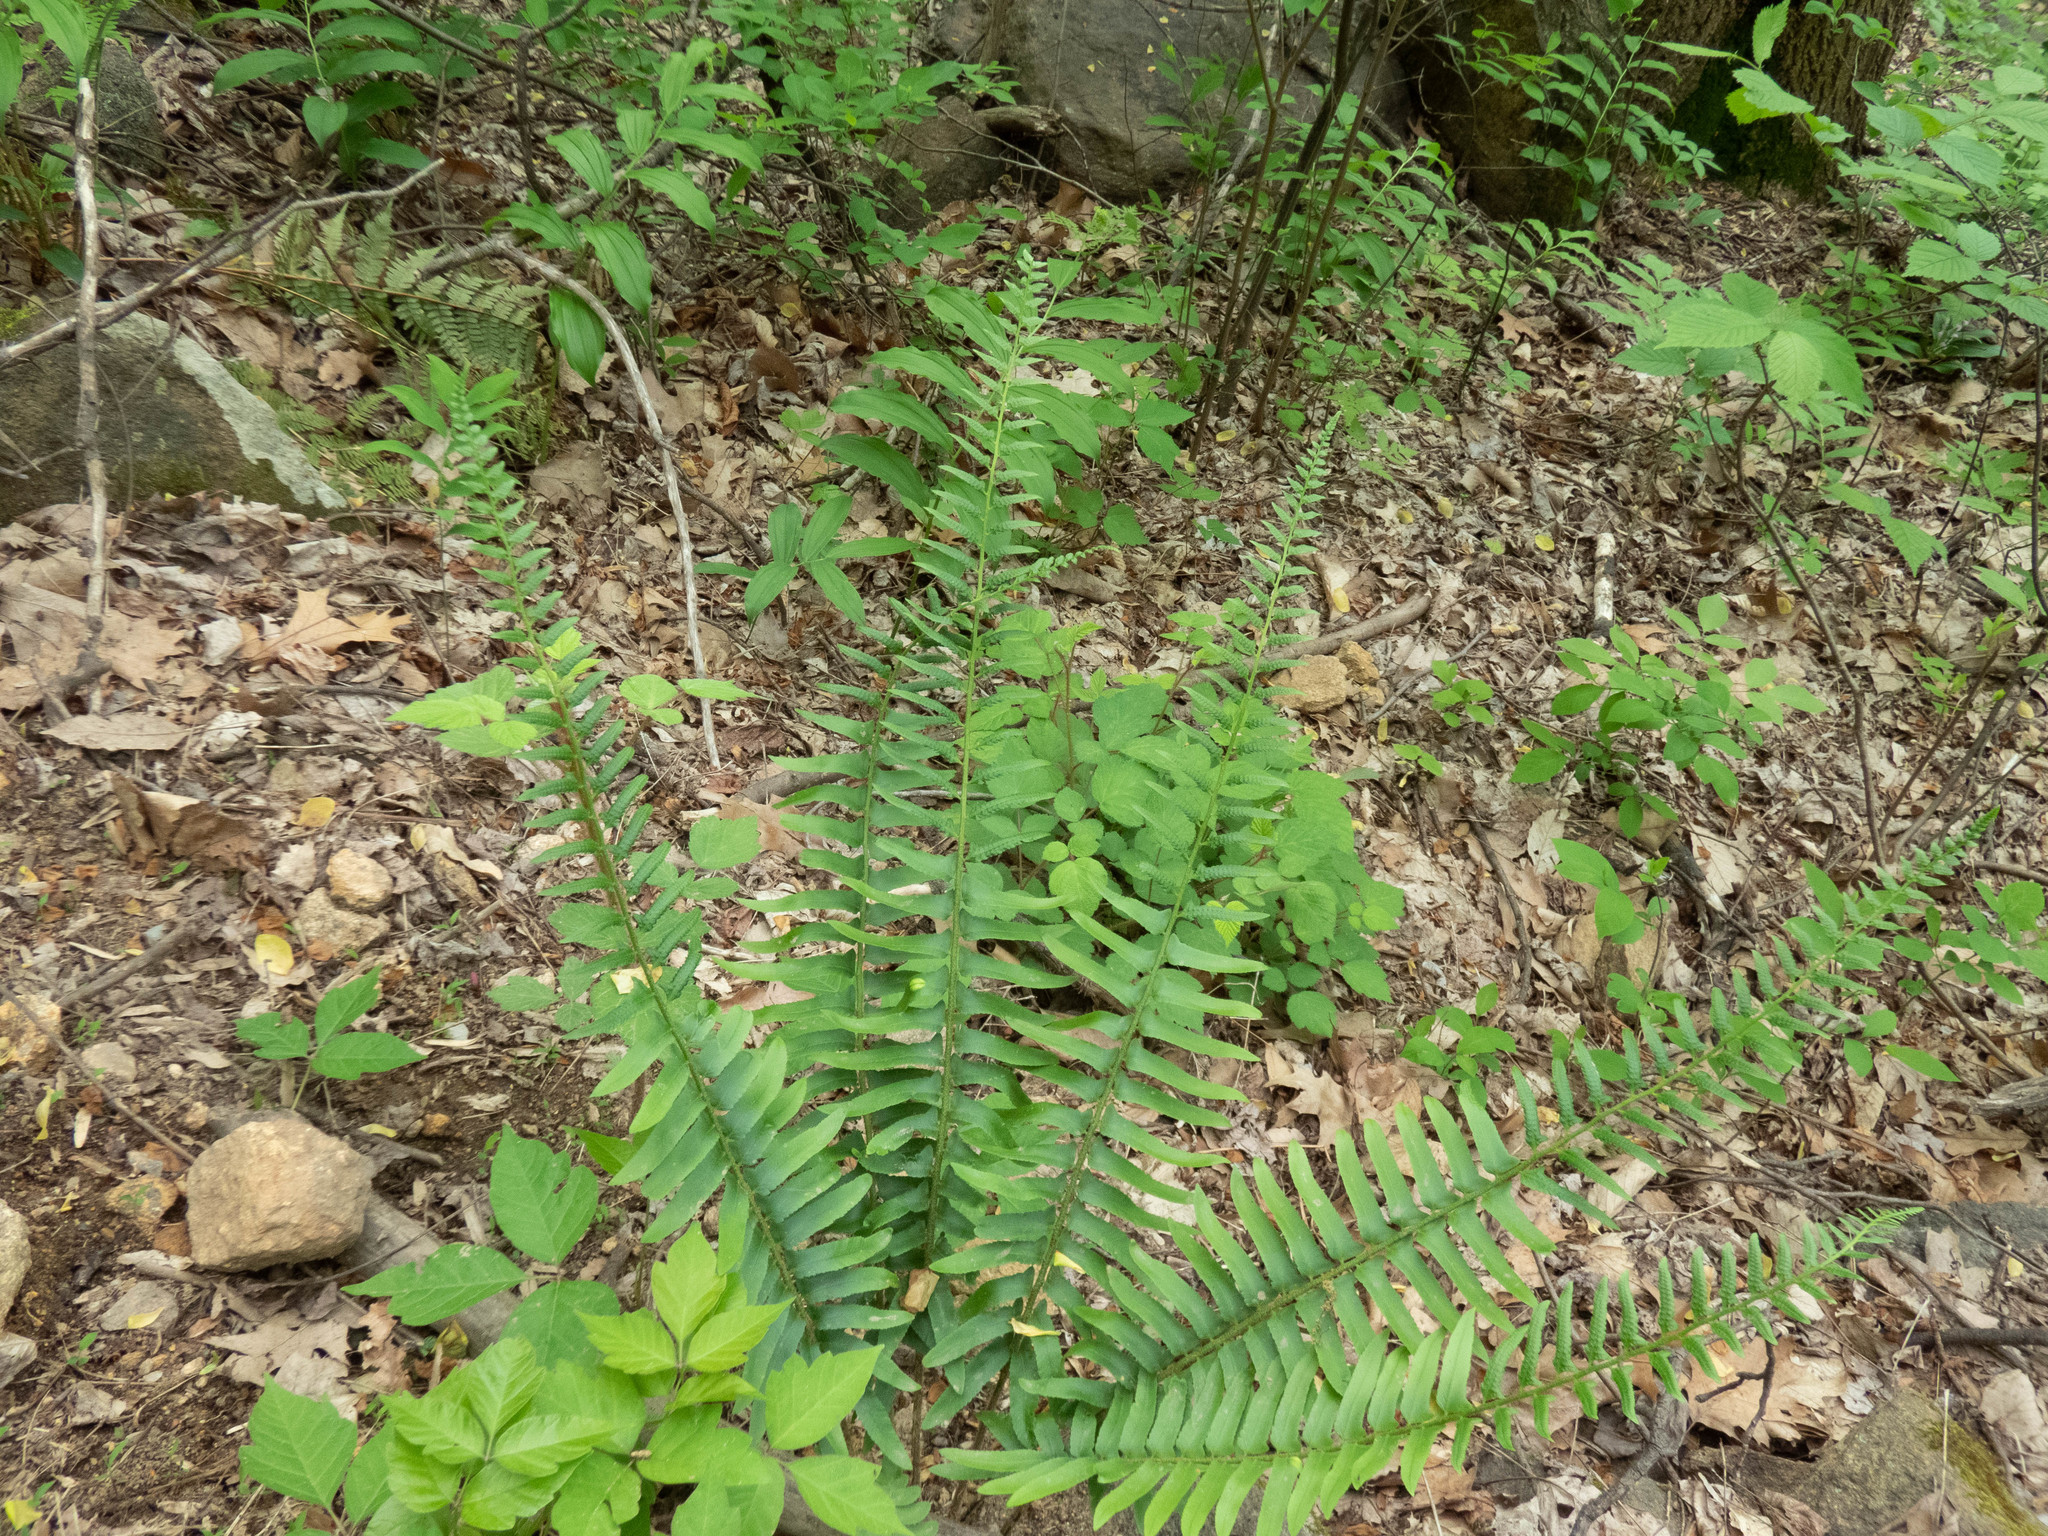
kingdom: Plantae
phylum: Tracheophyta
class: Polypodiopsida
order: Polypodiales
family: Dryopteridaceae
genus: Polystichum
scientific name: Polystichum acrostichoides
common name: Christmas fern
